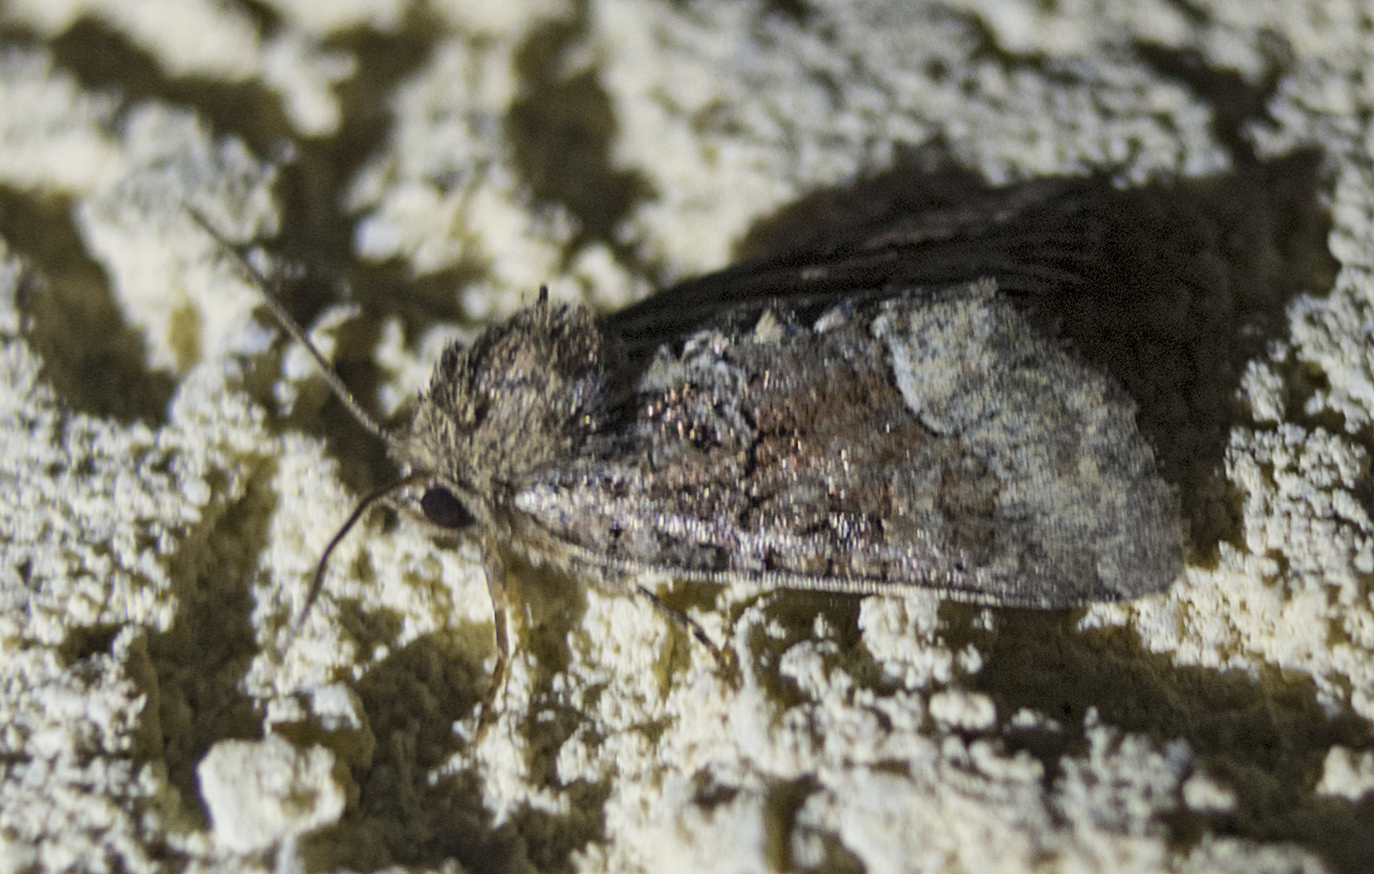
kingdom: Animalia
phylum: Arthropoda
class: Insecta
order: Lepidoptera
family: Noctuidae
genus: Oligia
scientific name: Oligia
